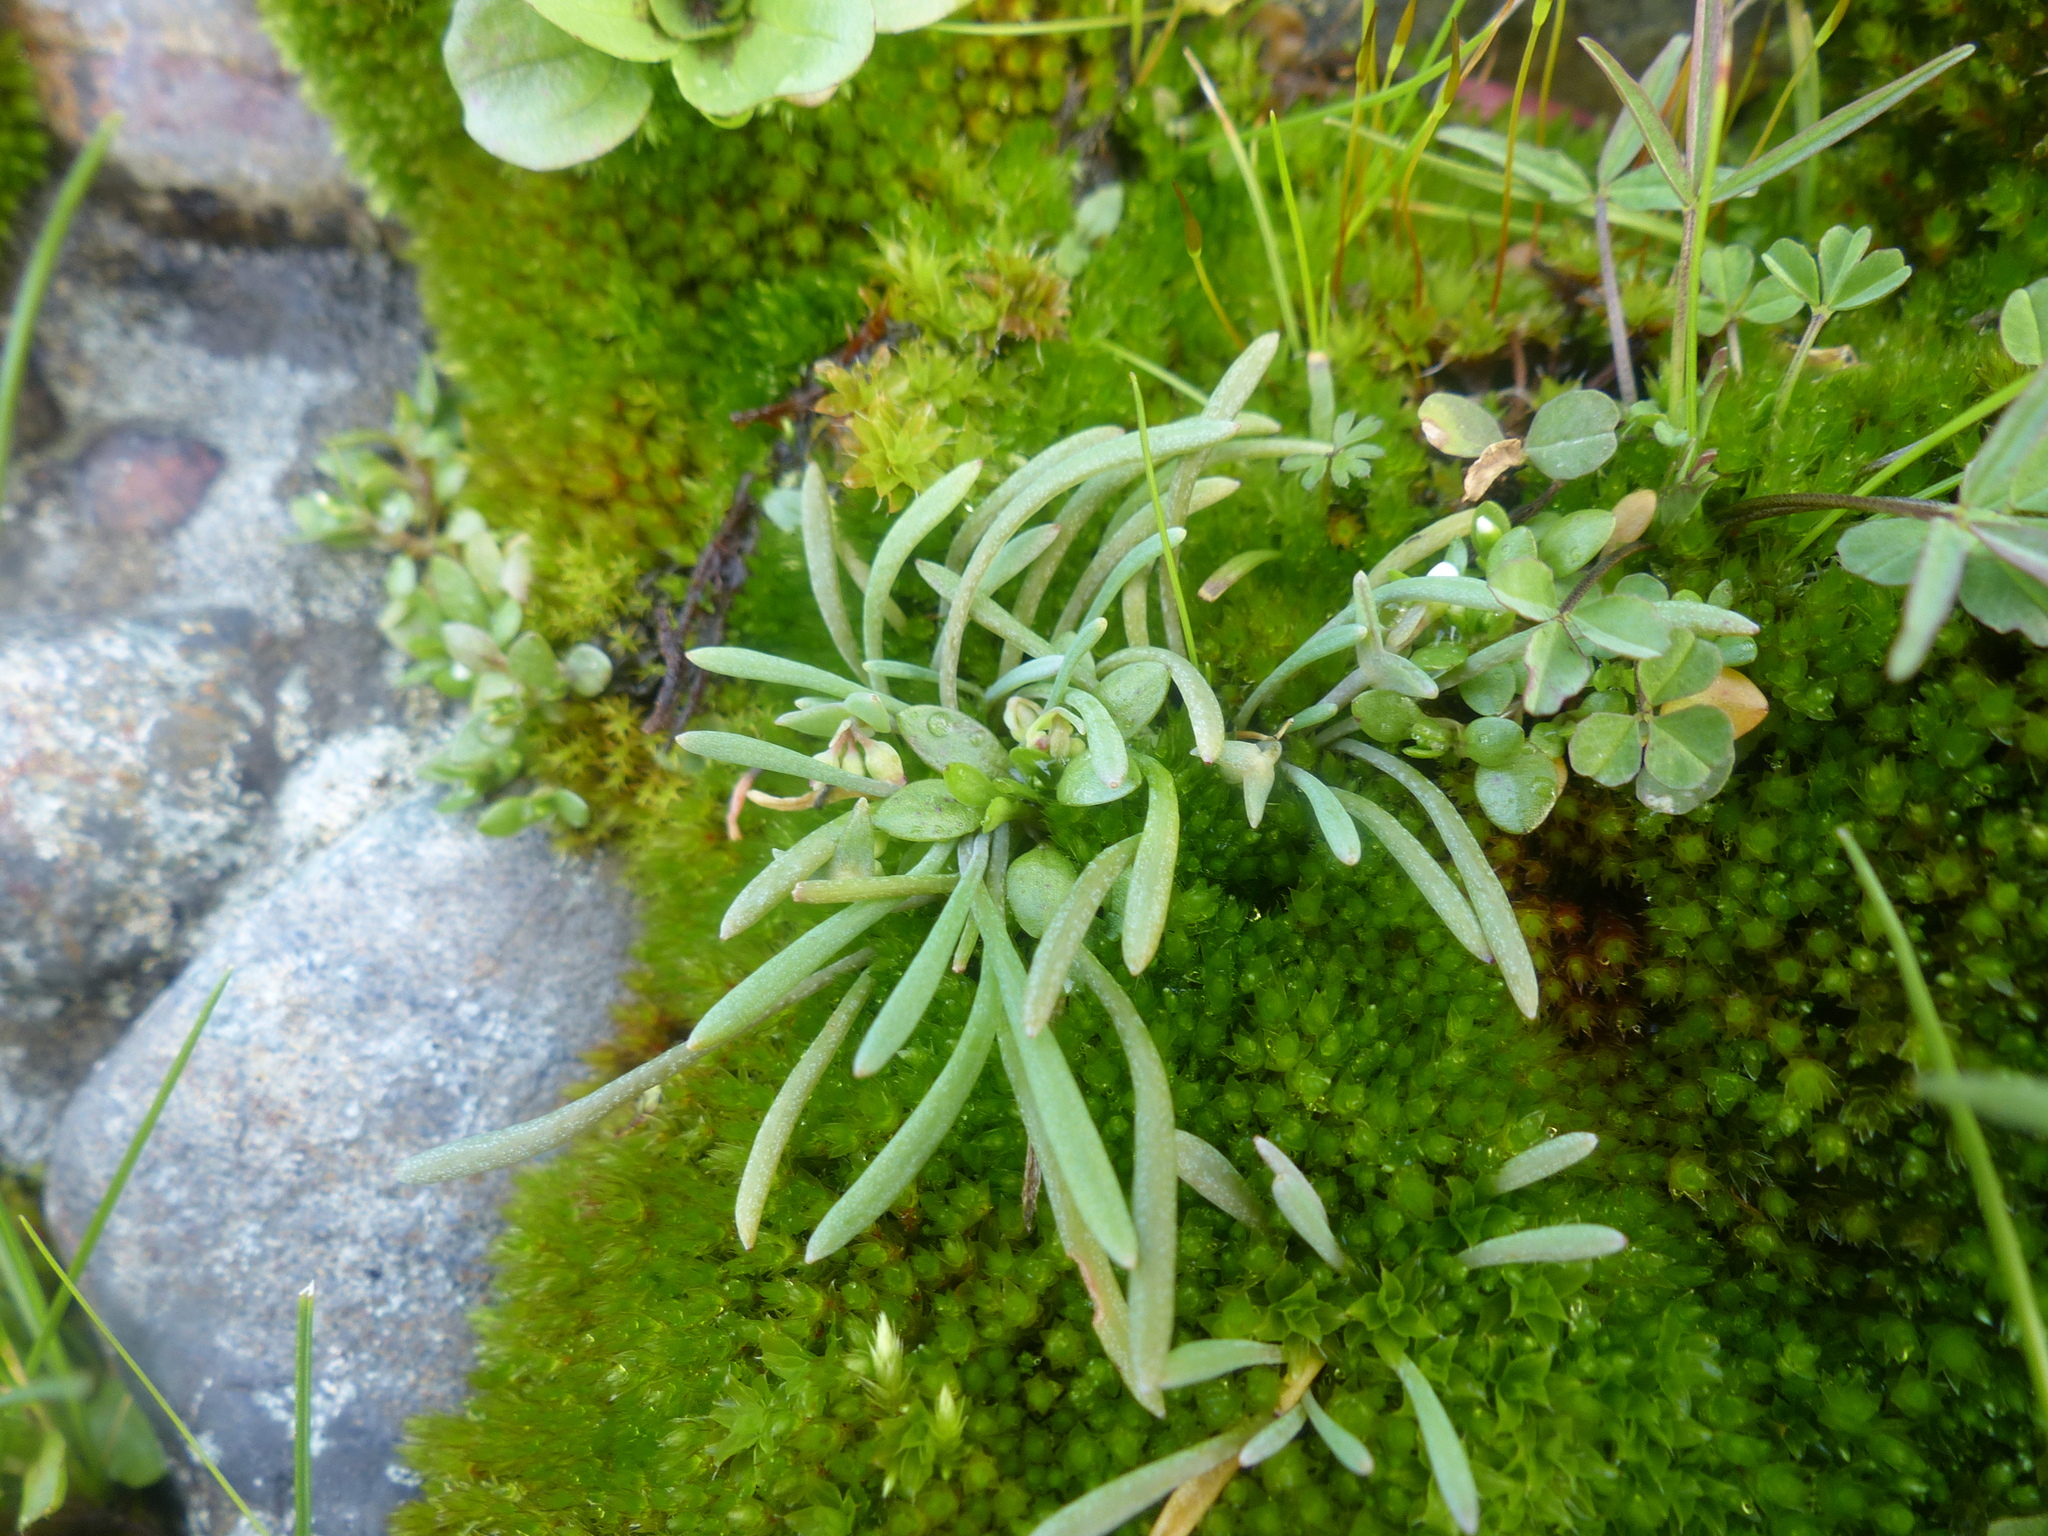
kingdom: Plantae
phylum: Tracheophyta
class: Magnoliopsida
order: Caryophyllales
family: Montiaceae
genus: Claytonia
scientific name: Claytonia exigua
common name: Pale spring beauty
